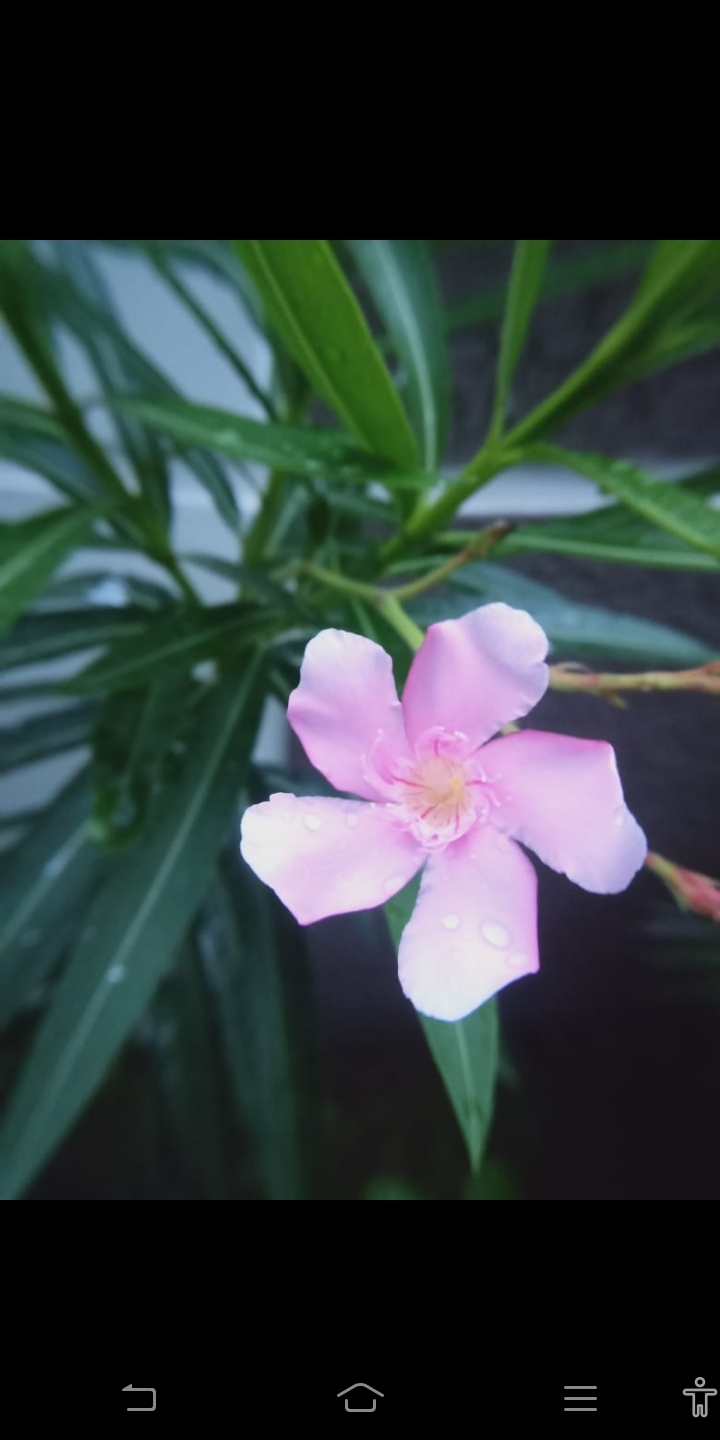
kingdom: Plantae
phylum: Tracheophyta
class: Magnoliopsida
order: Gentianales
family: Apocynaceae
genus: Nerium
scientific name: Nerium oleander
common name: Oleander
